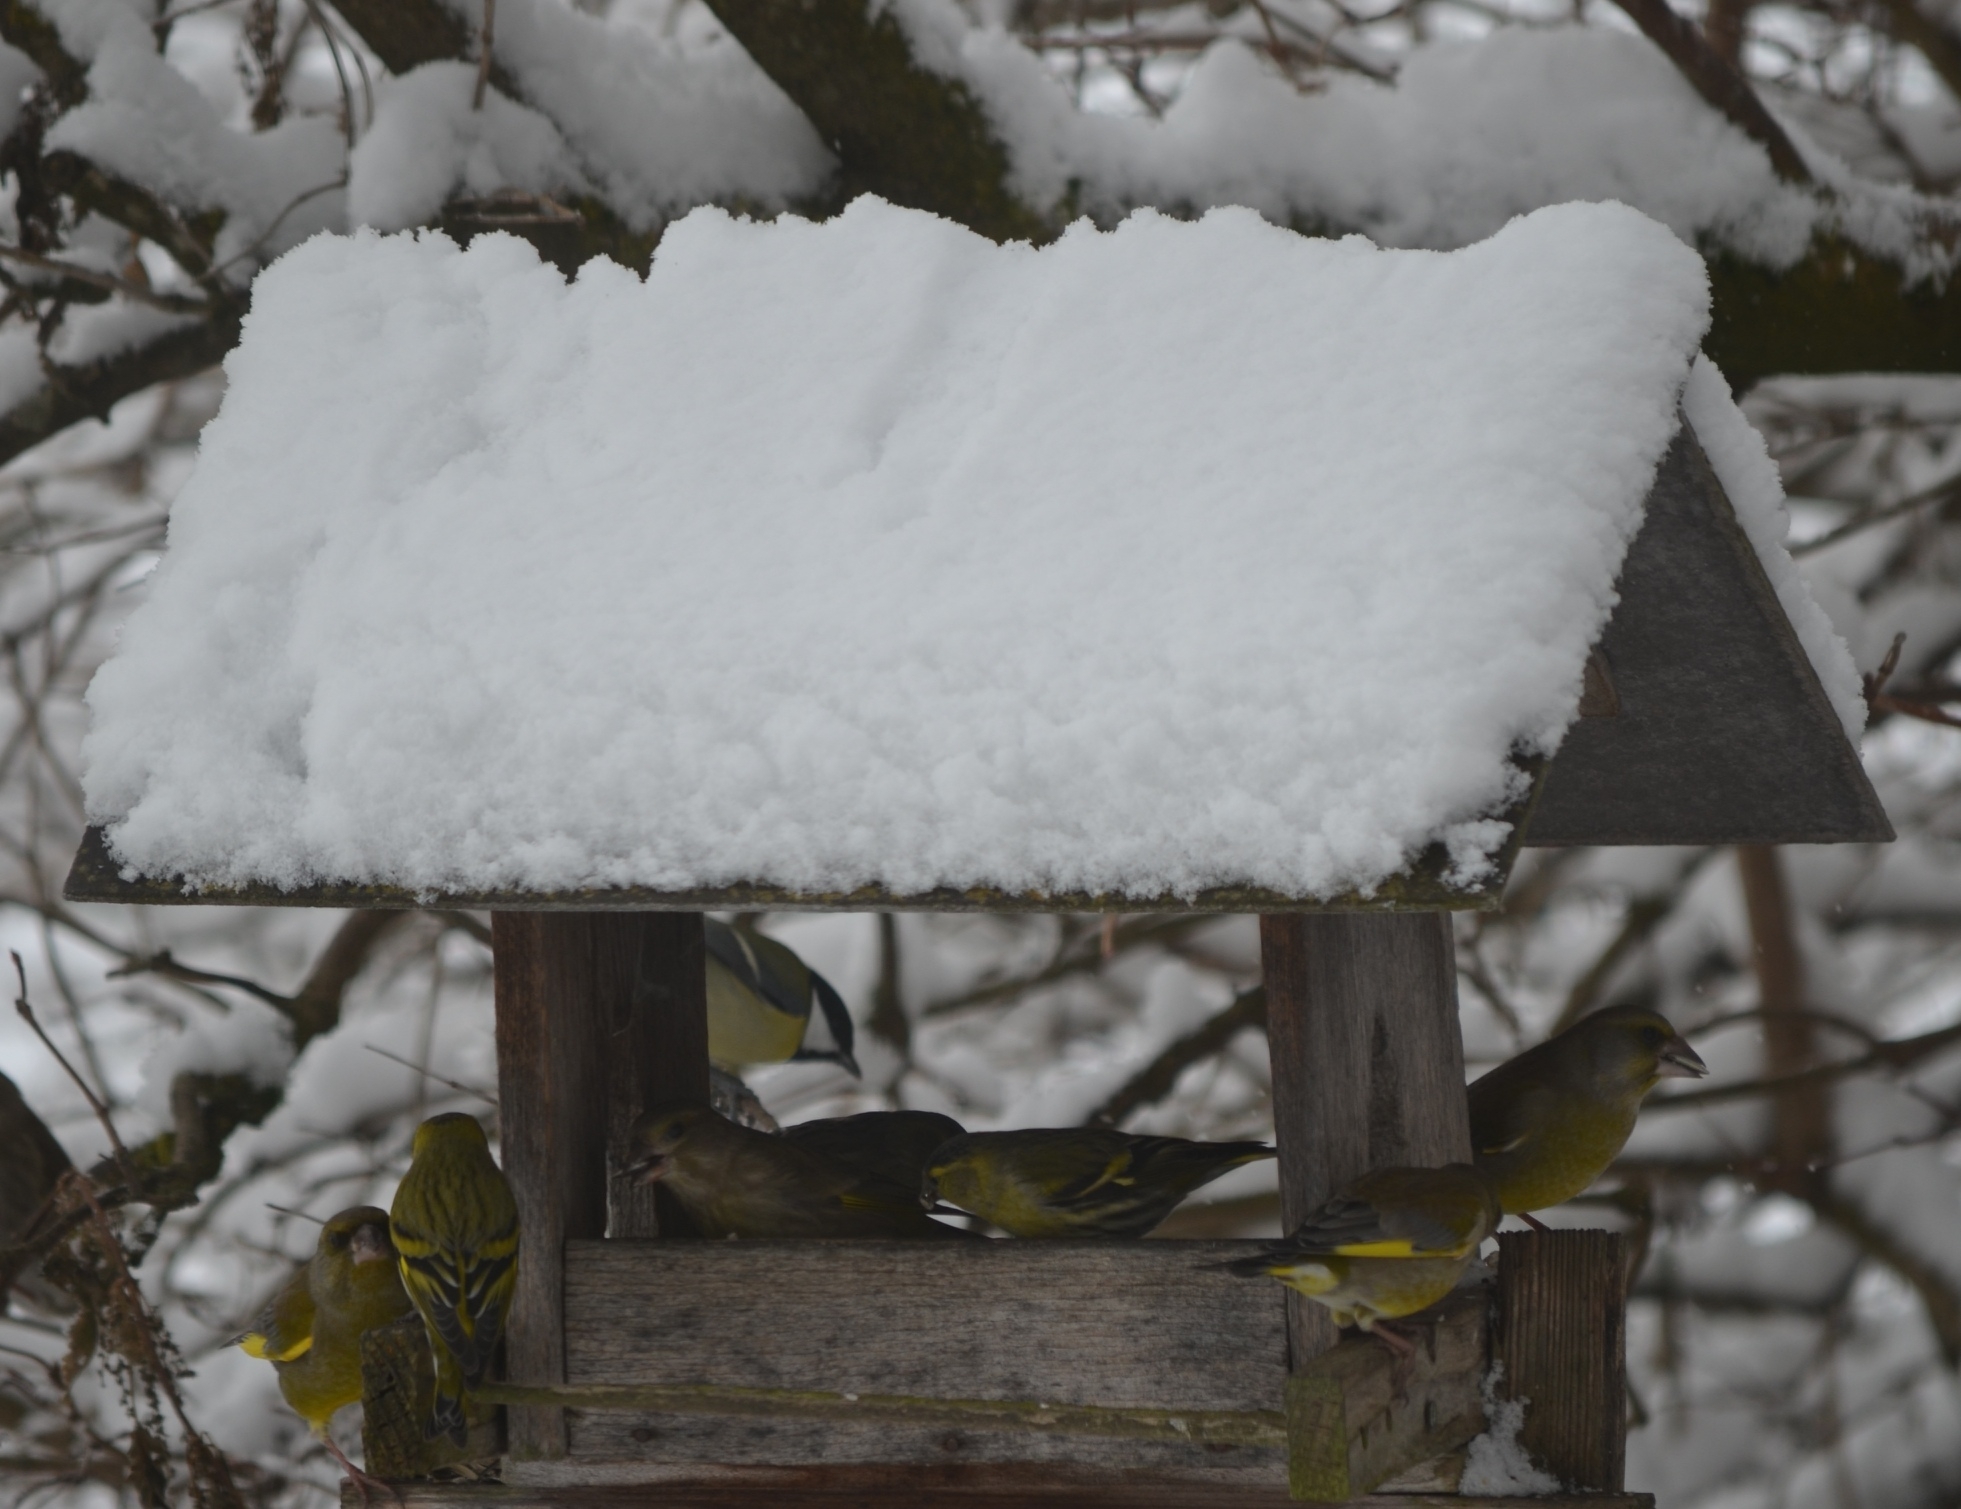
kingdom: Plantae
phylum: Tracheophyta
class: Liliopsida
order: Poales
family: Poaceae
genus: Chloris
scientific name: Chloris chloris
